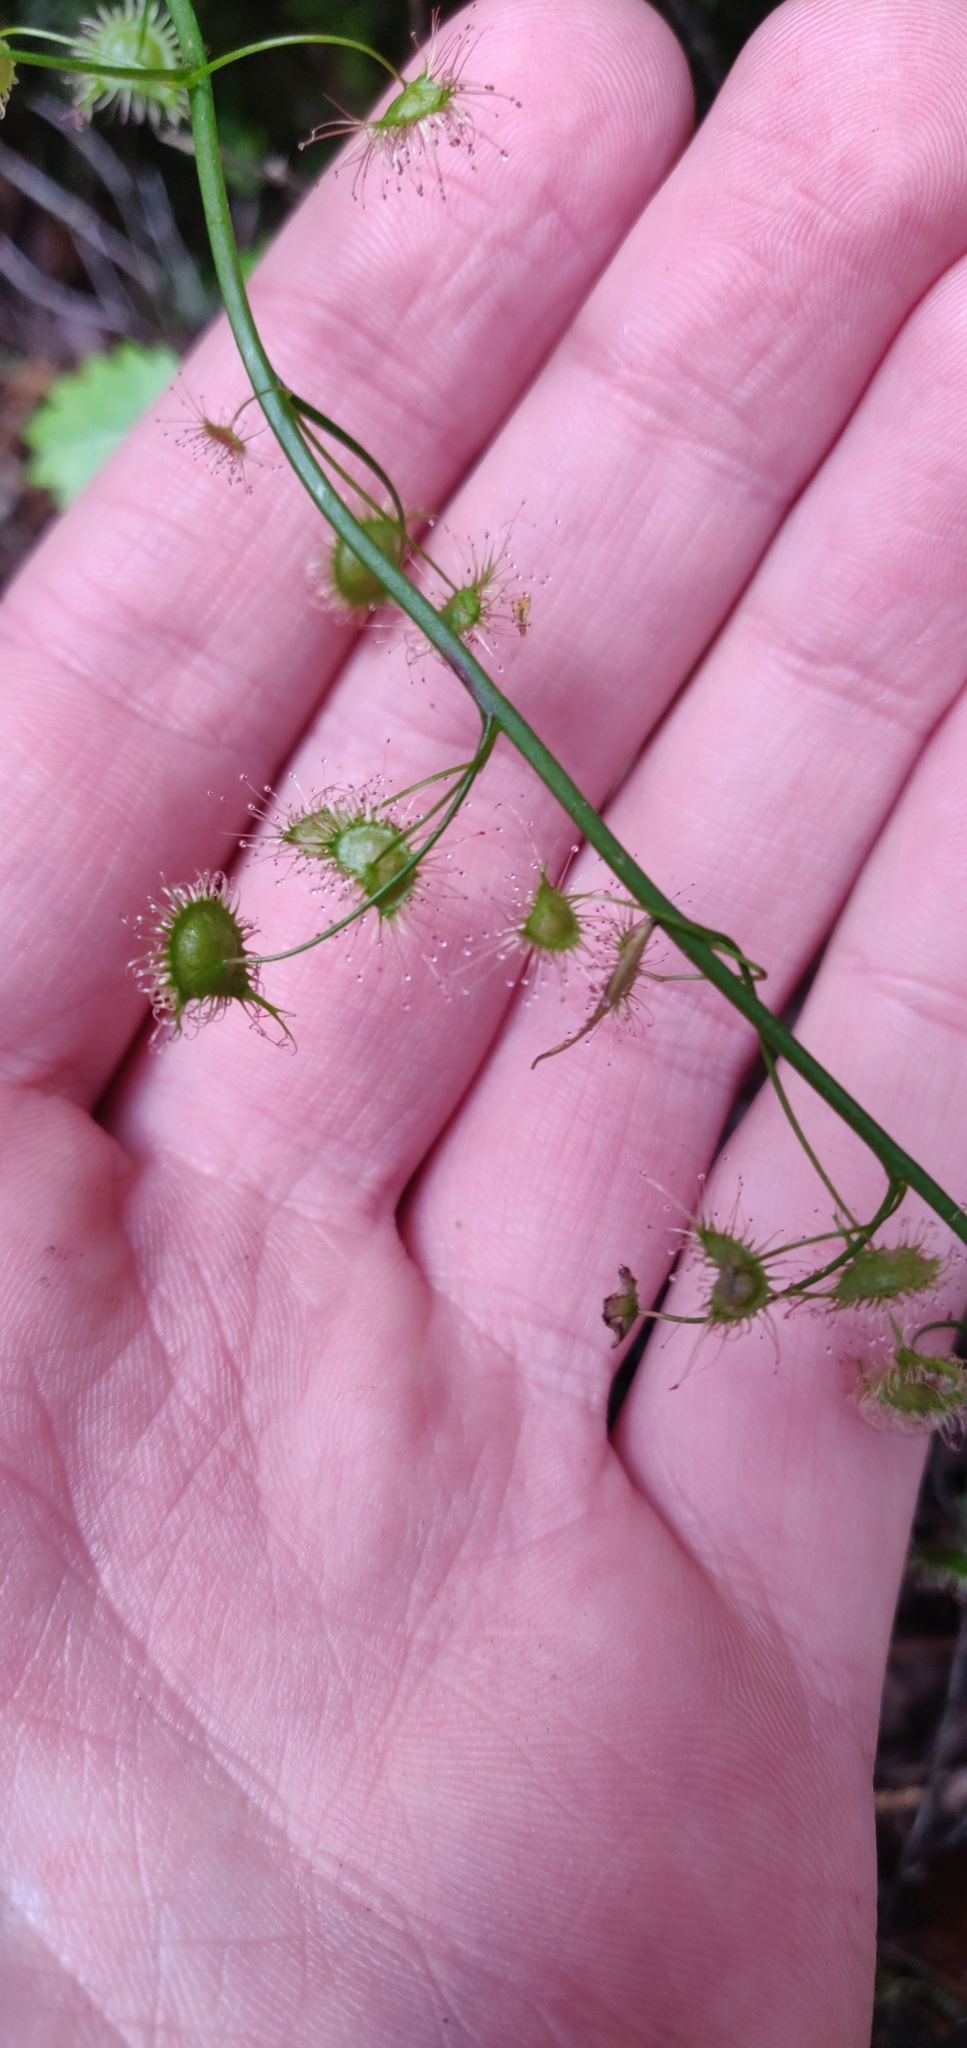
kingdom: Plantae
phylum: Tracheophyta
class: Magnoliopsida
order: Caryophyllales
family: Droseraceae
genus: Drosera
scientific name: Drosera peltata
